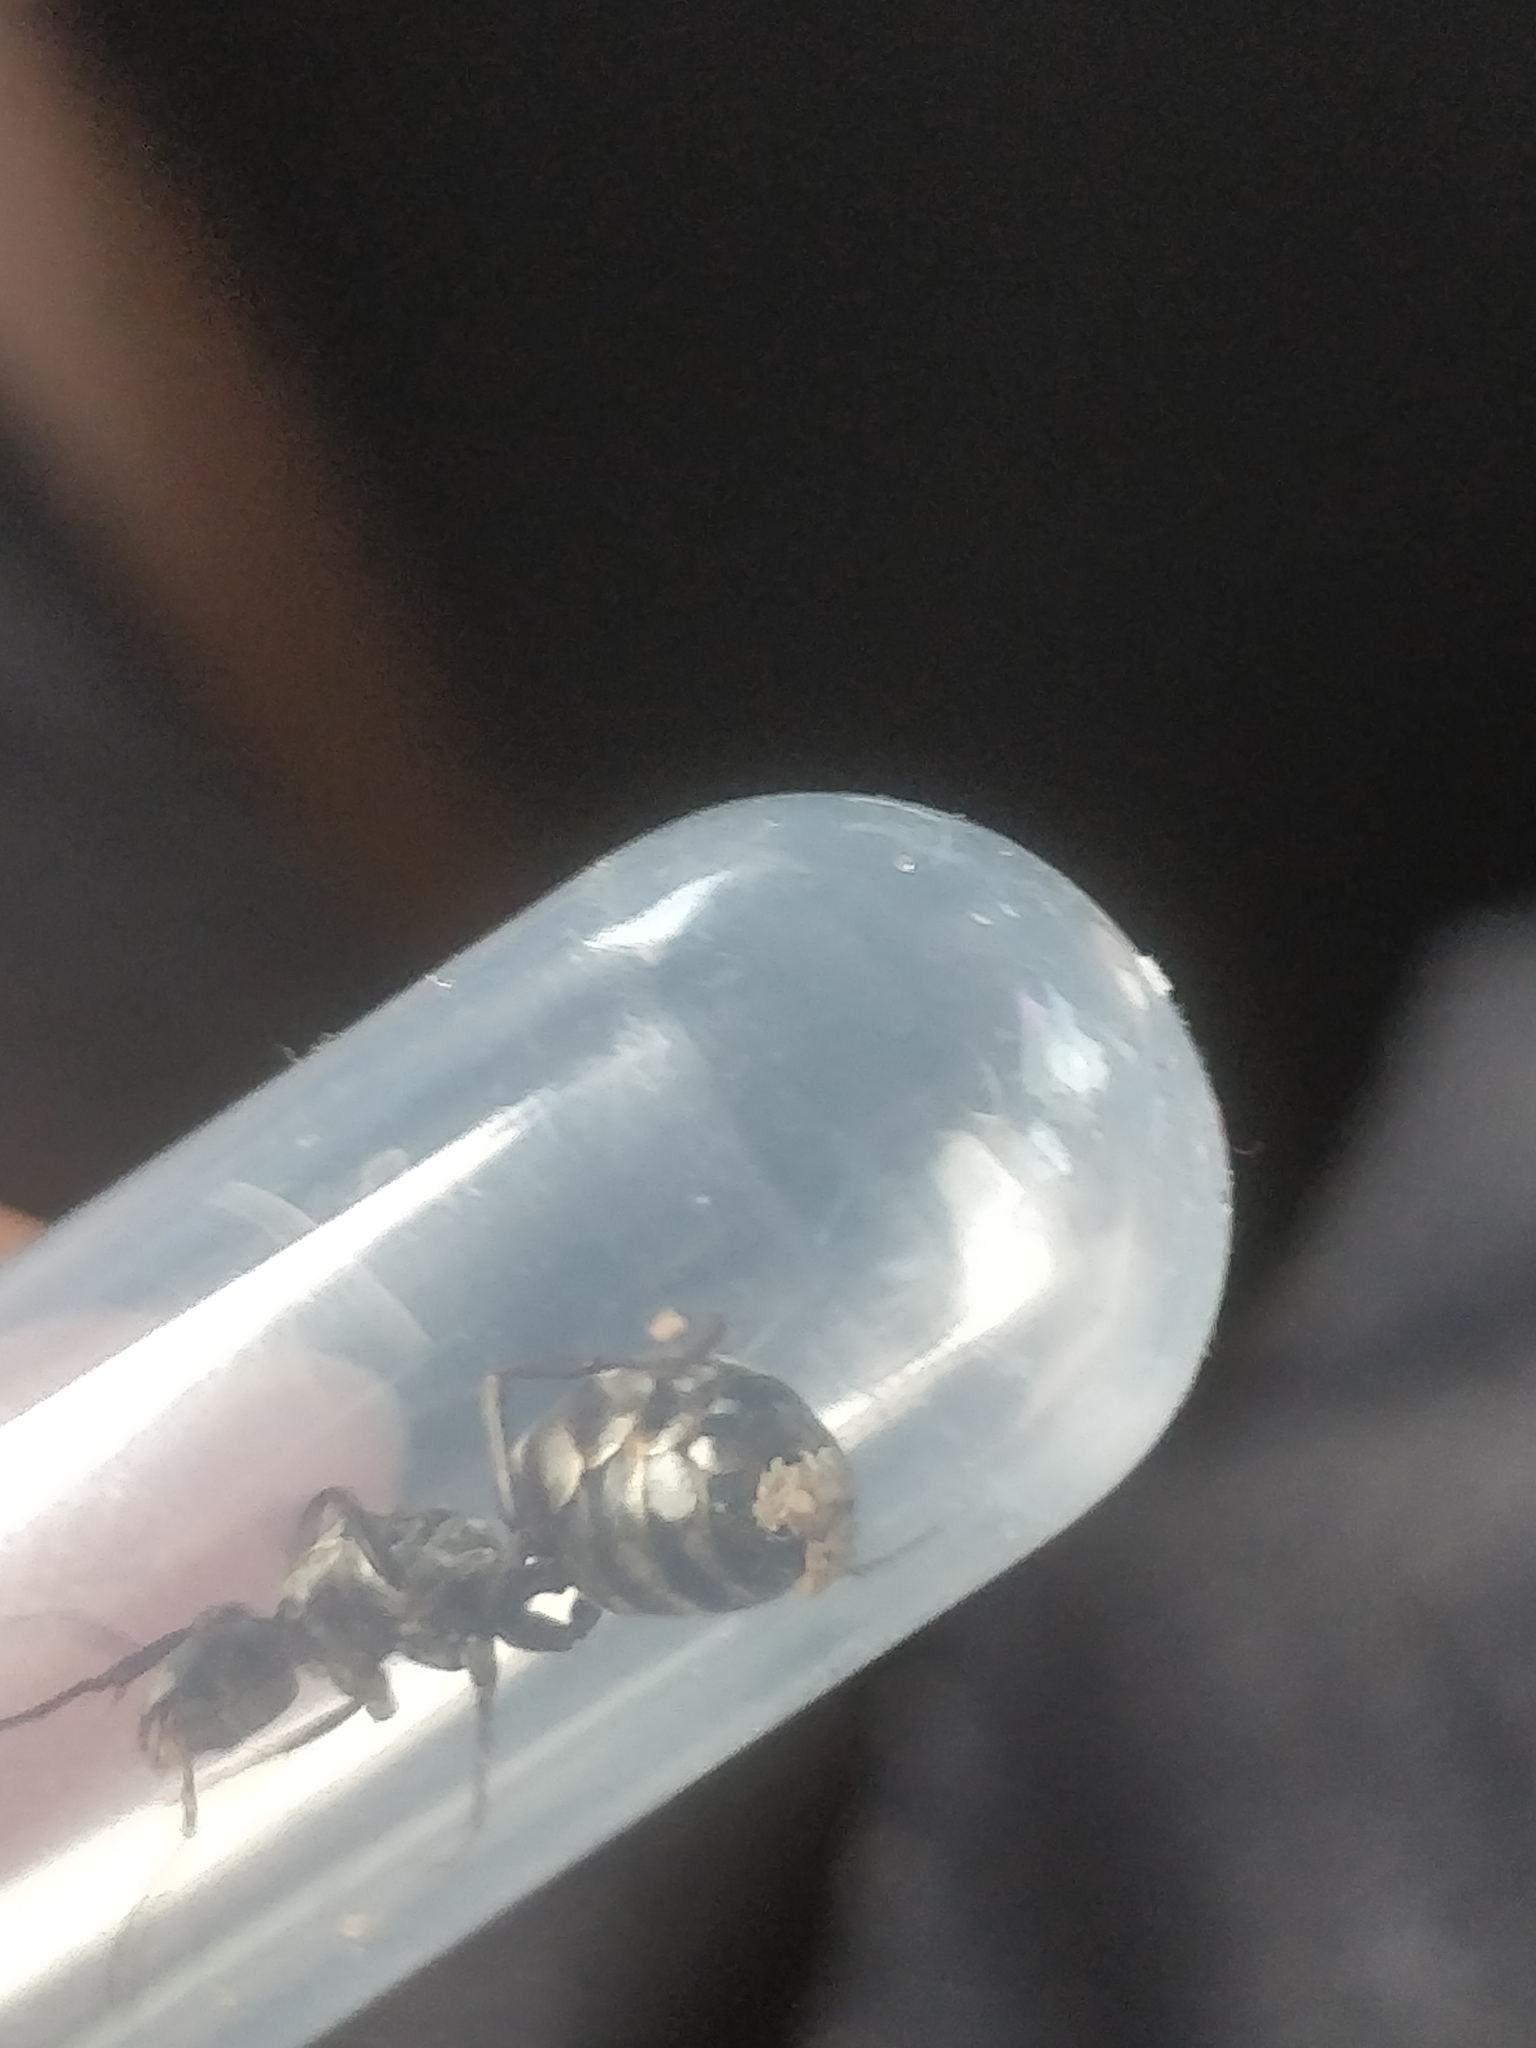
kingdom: Animalia
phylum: Arthropoda
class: Insecta
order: Hymenoptera
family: Formicidae
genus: Formica
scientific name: Formica subsericea
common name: Silky field ant
